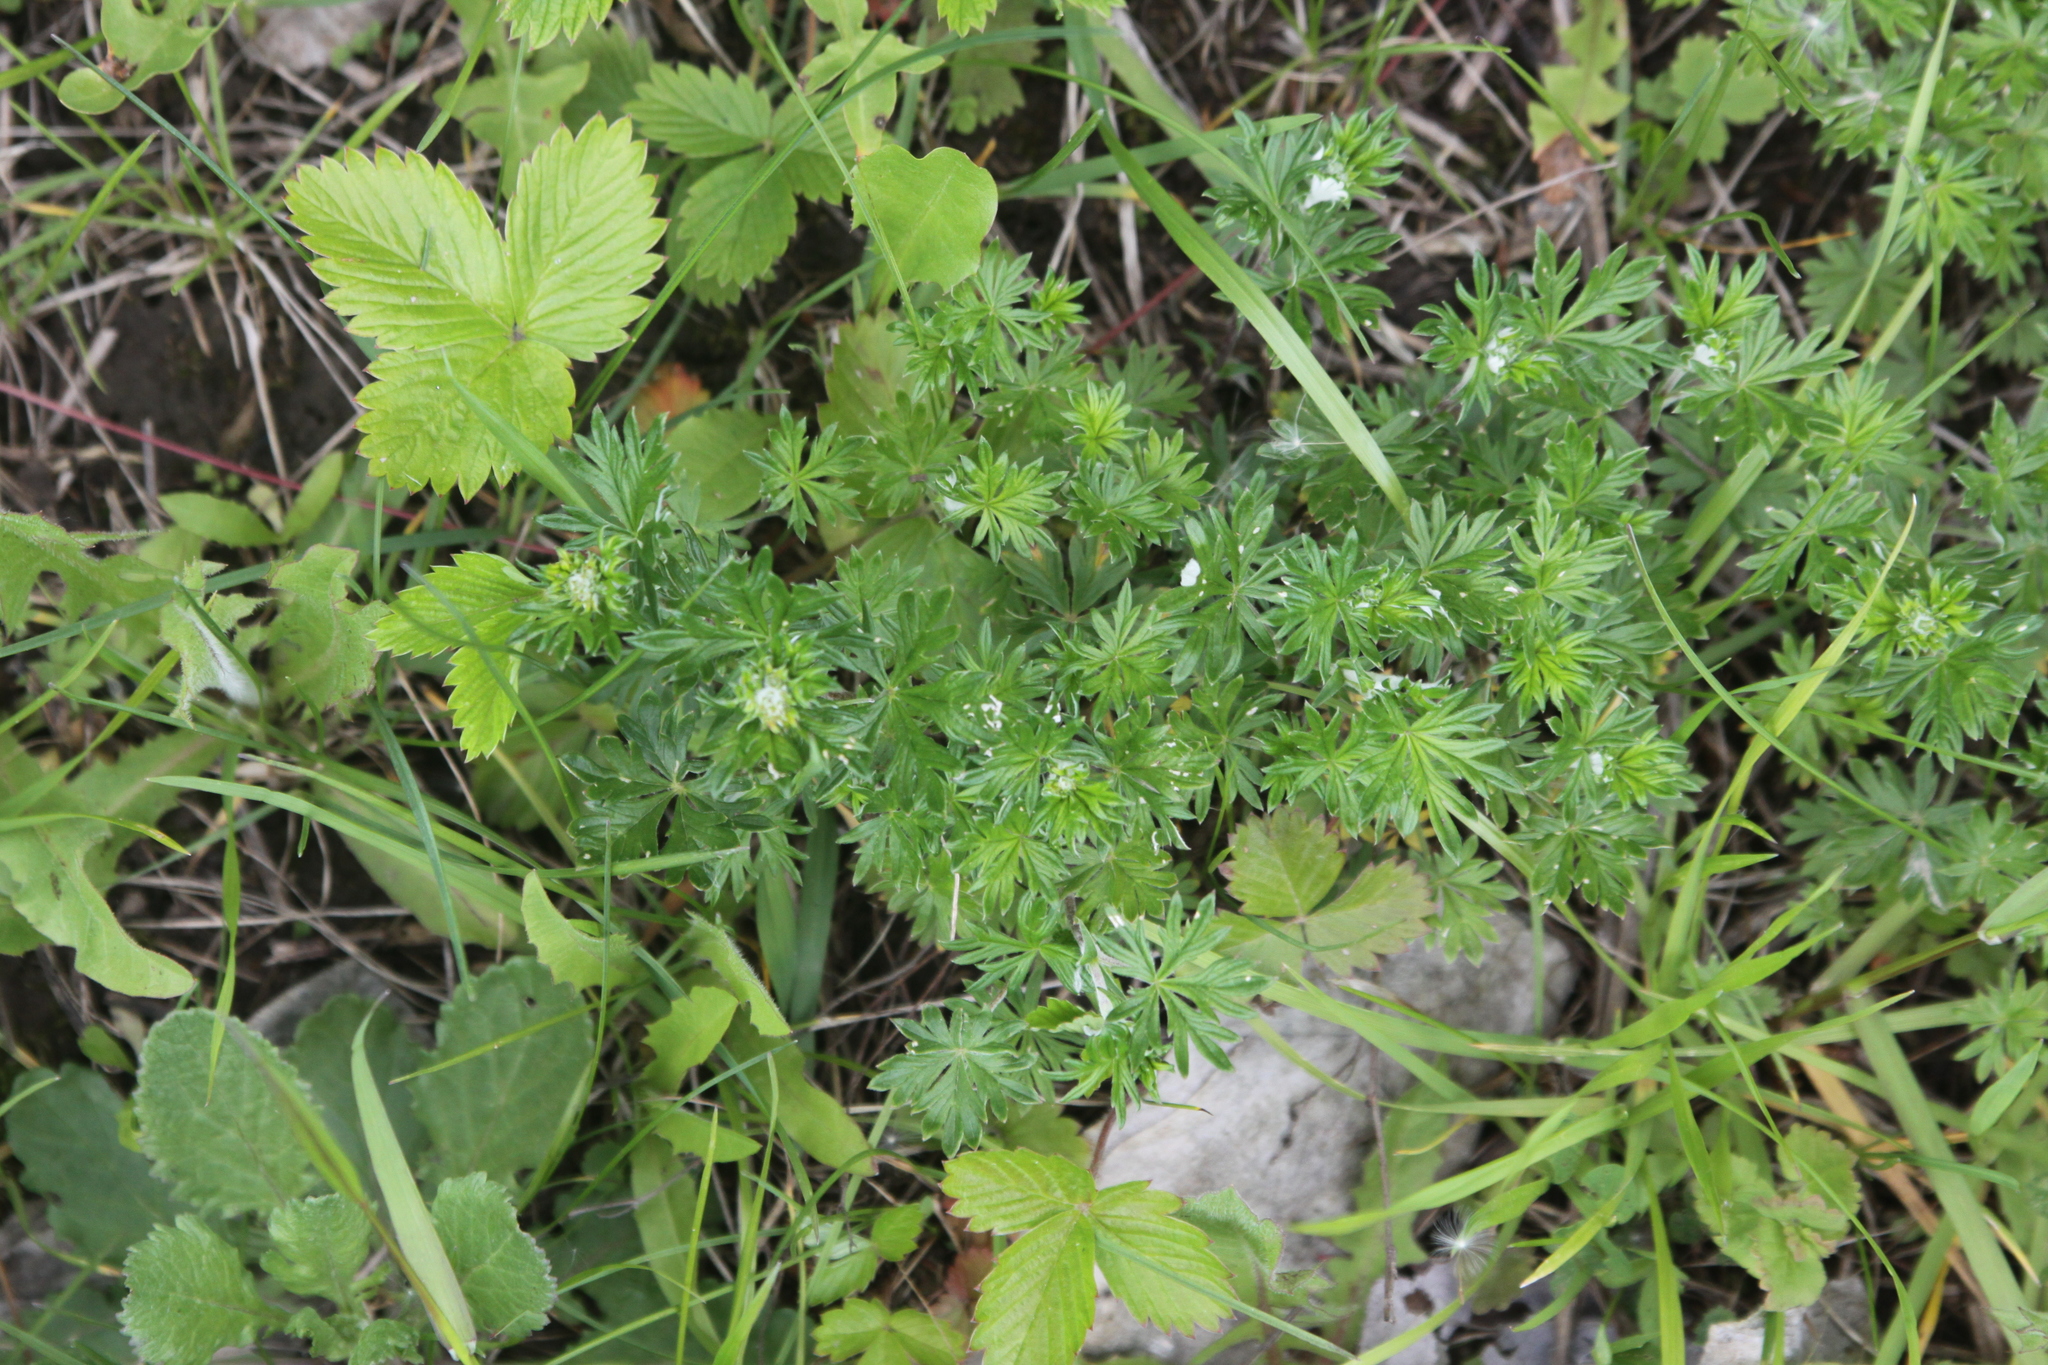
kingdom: Plantae
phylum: Tracheophyta
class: Magnoliopsida
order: Rosales
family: Rosaceae
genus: Potentilla
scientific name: Potentilla argentea
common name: Hoary cinquefoil
